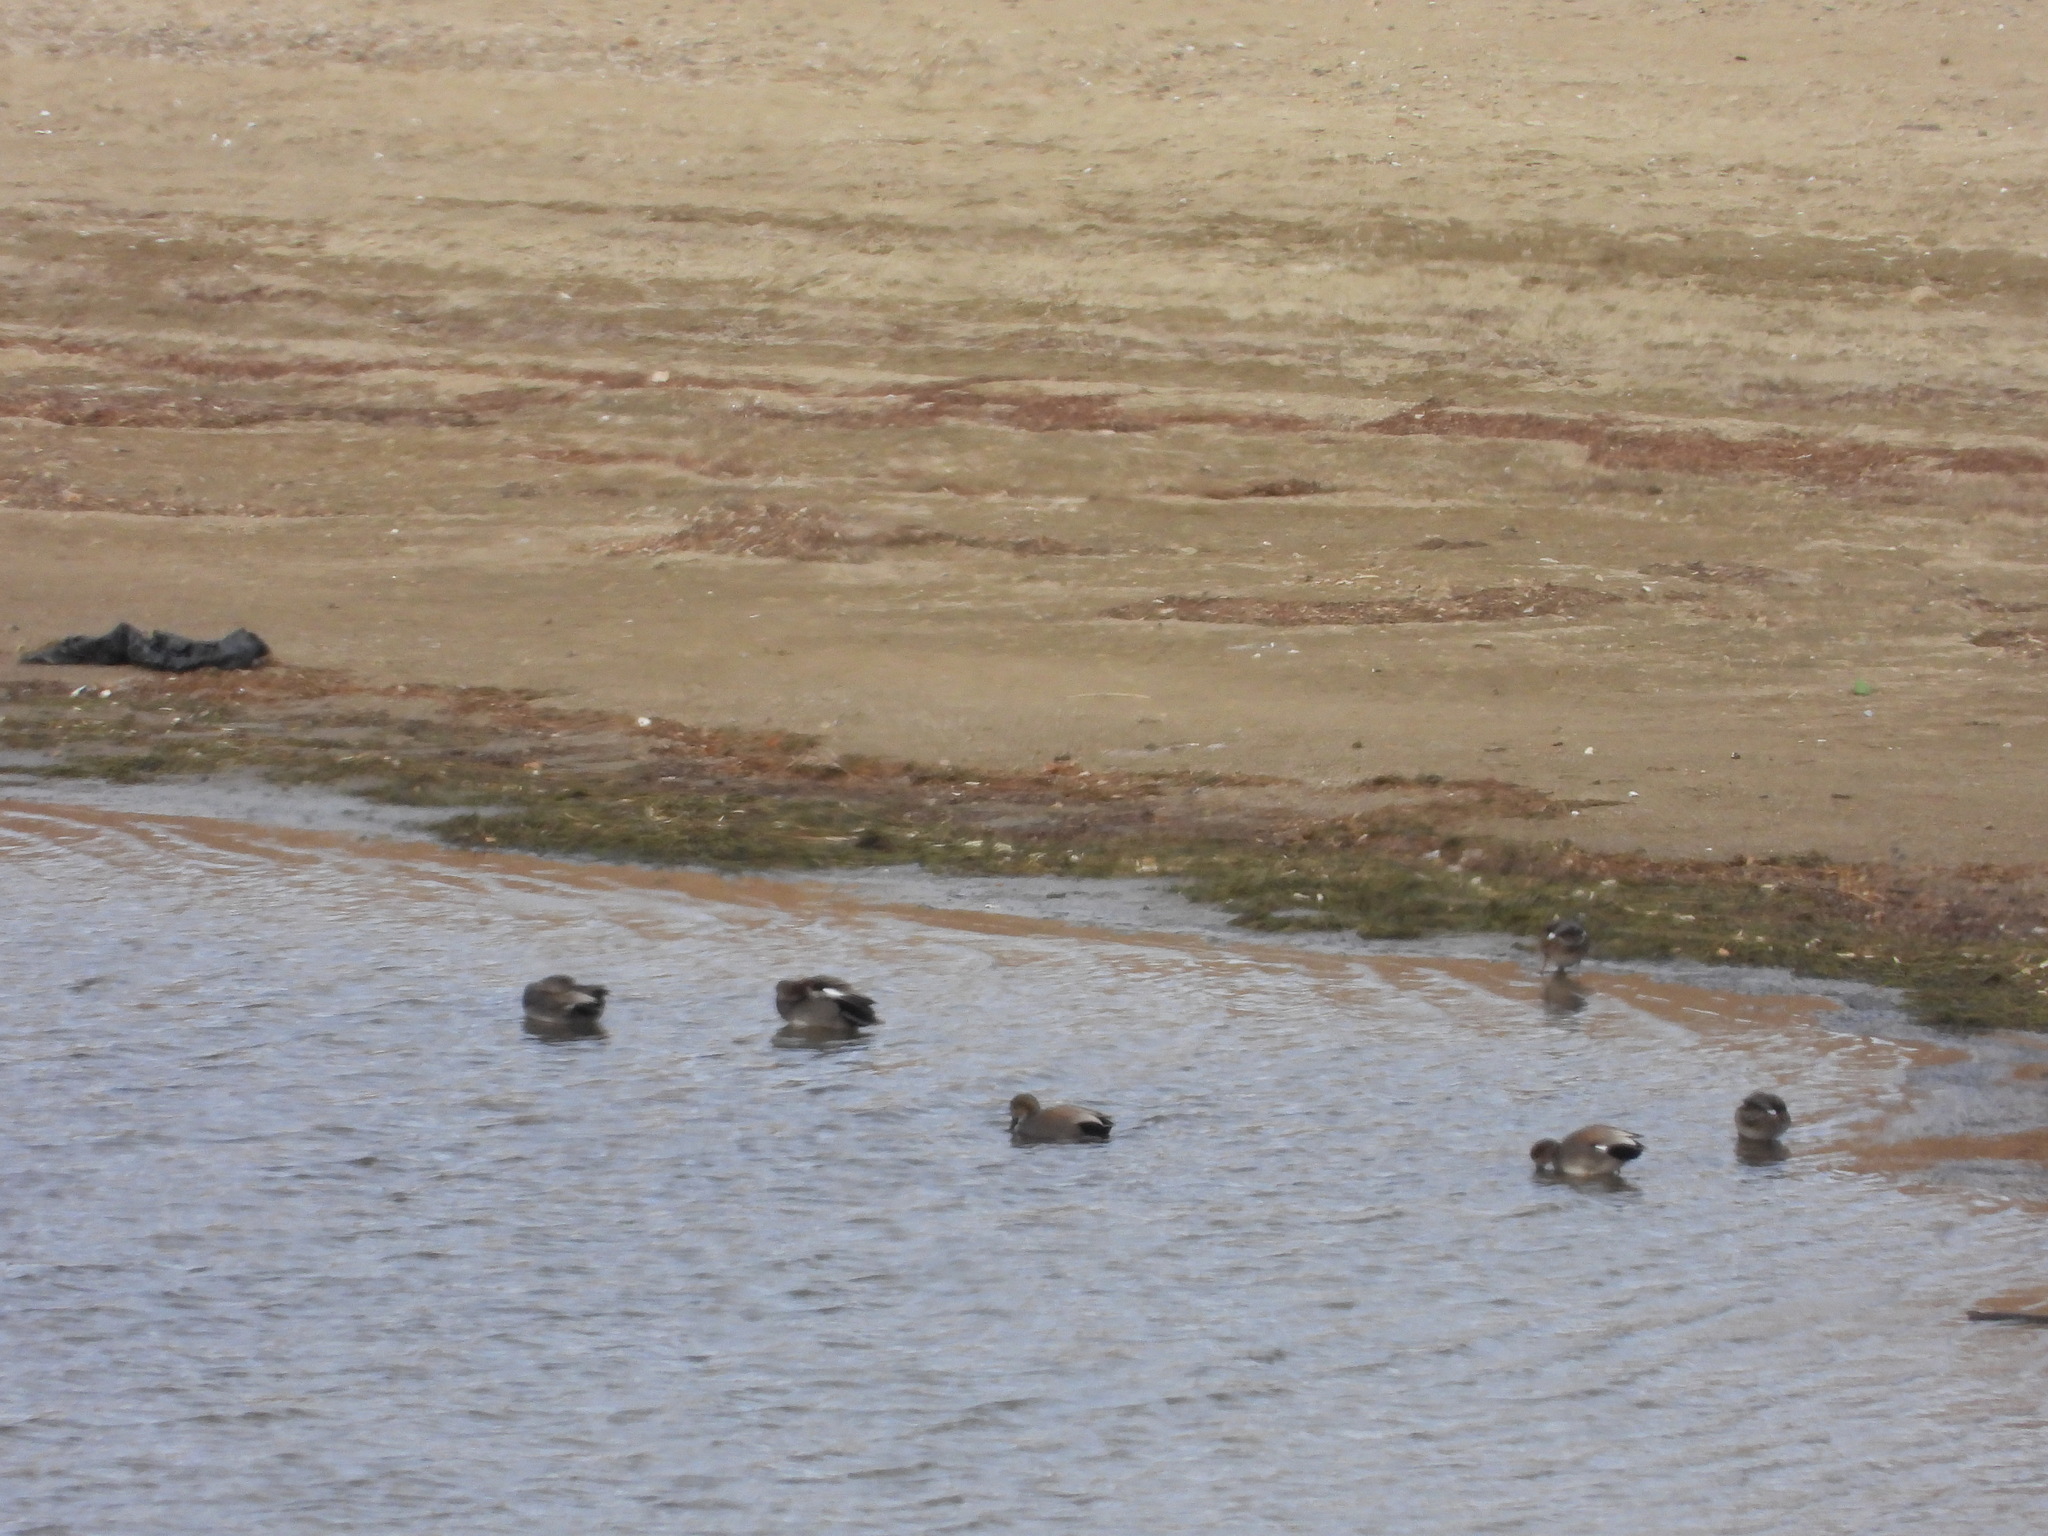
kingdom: Animalia
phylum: Chordata
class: Aves
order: Anseriformes
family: Anatidae
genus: Mareca
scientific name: Mareca strepera
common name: Gadwall
